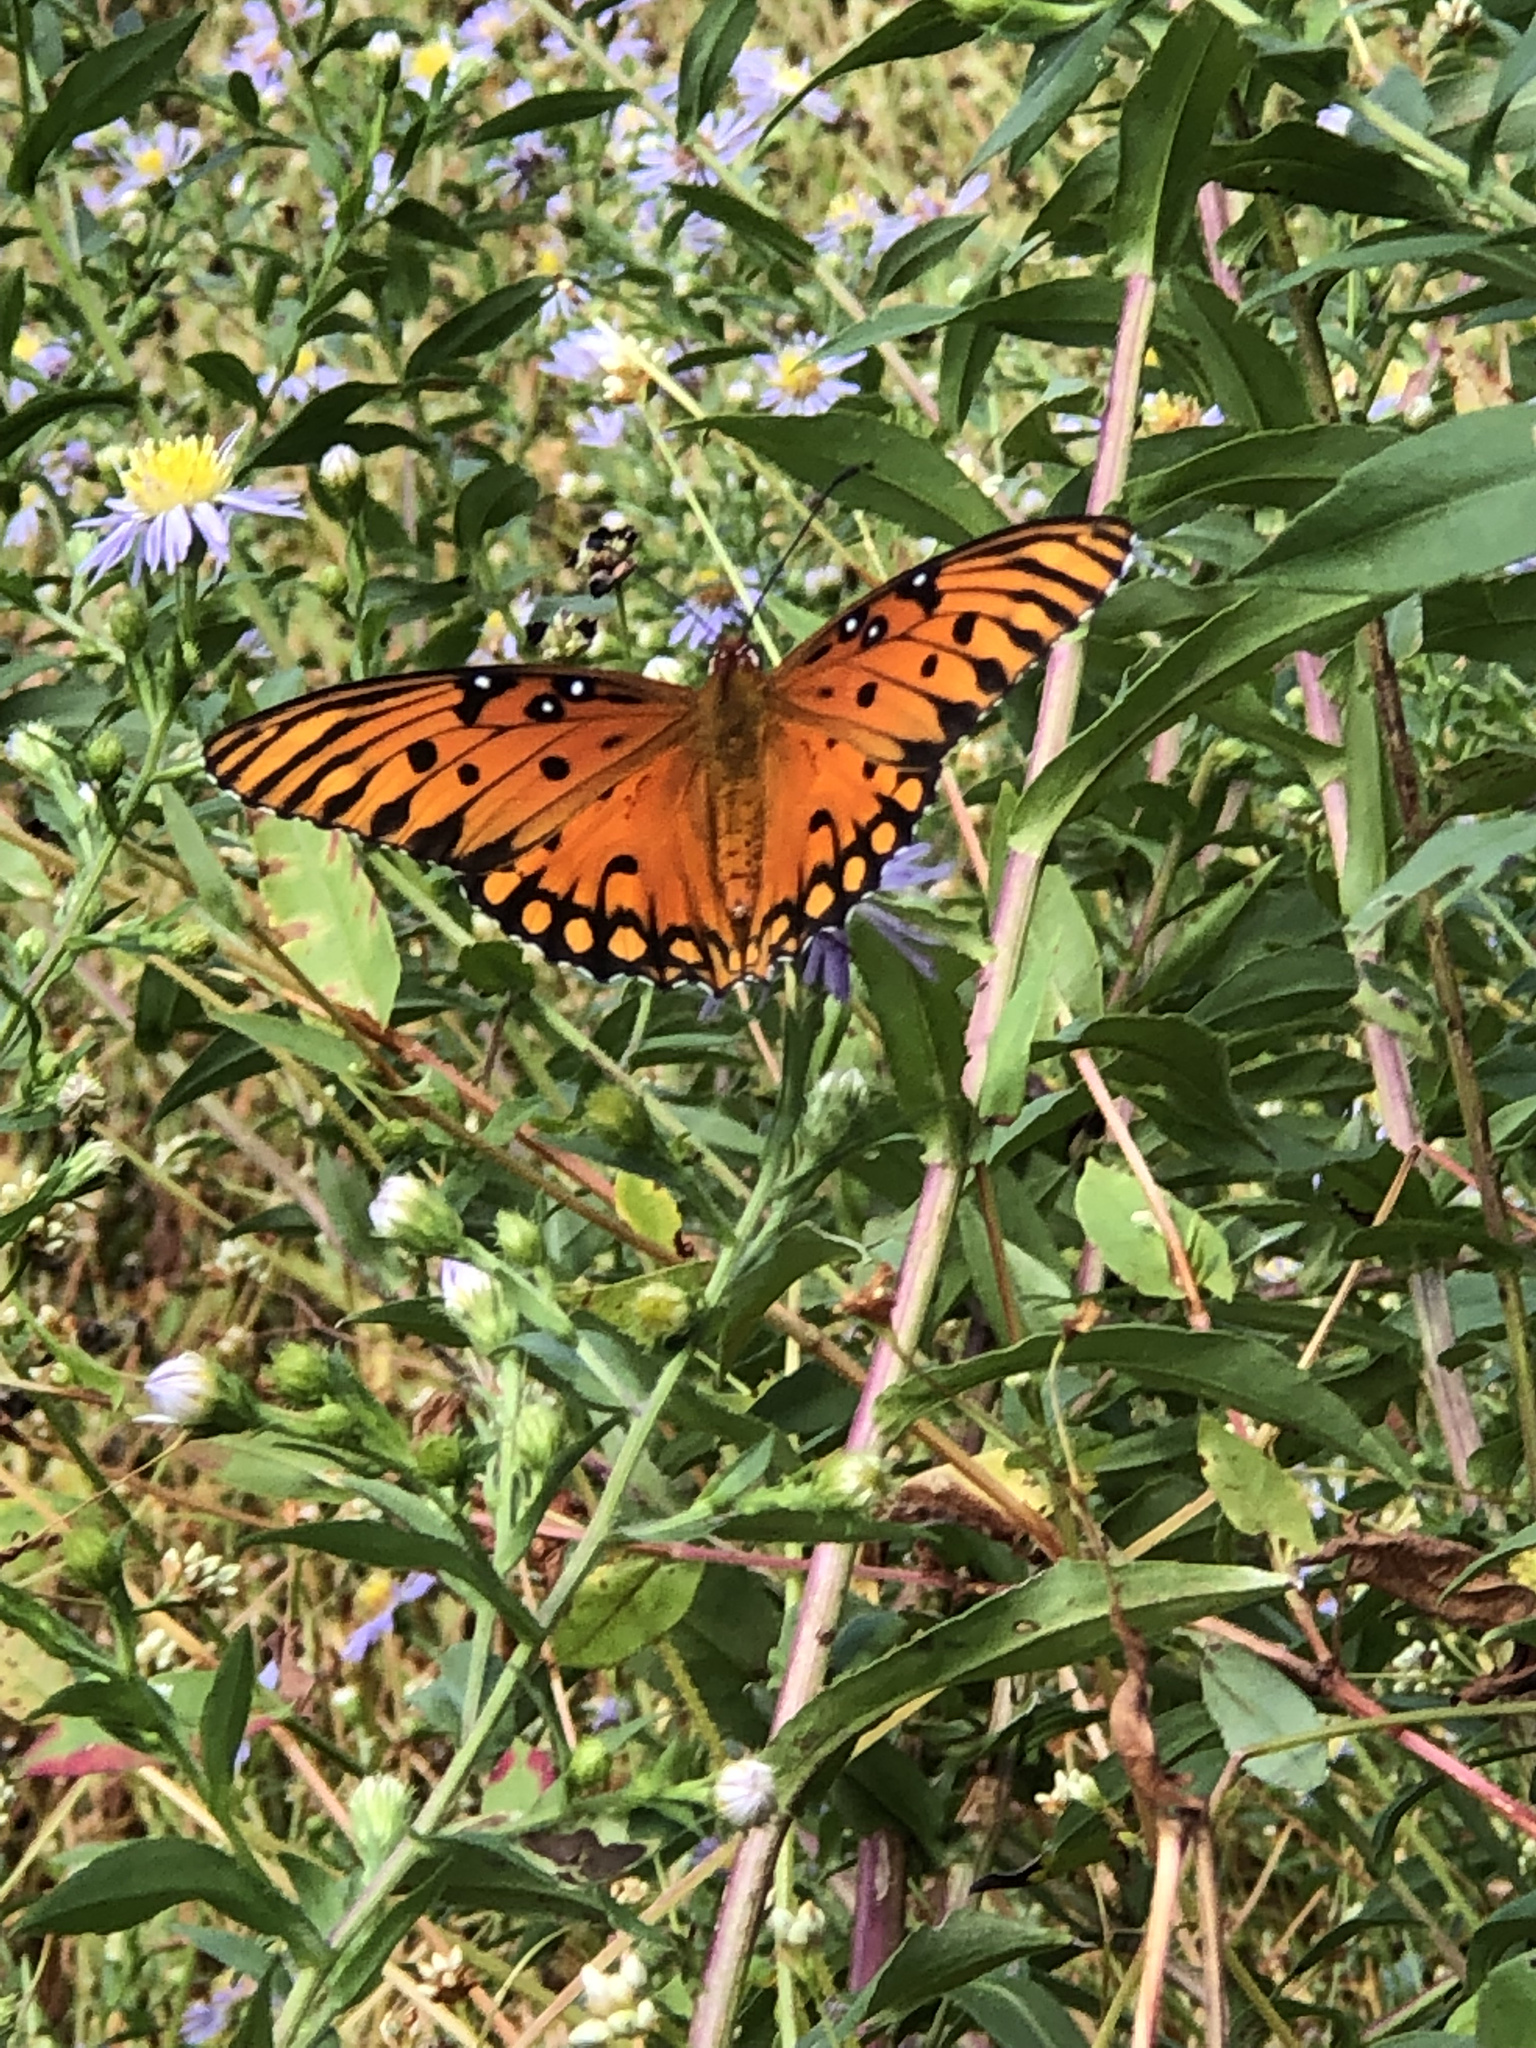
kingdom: Animalia
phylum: Arthropoda
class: Insecta
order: Lepidoptera
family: Nymphalidae
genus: Dione
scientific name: Dione vanillae
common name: Gulf fritillary
